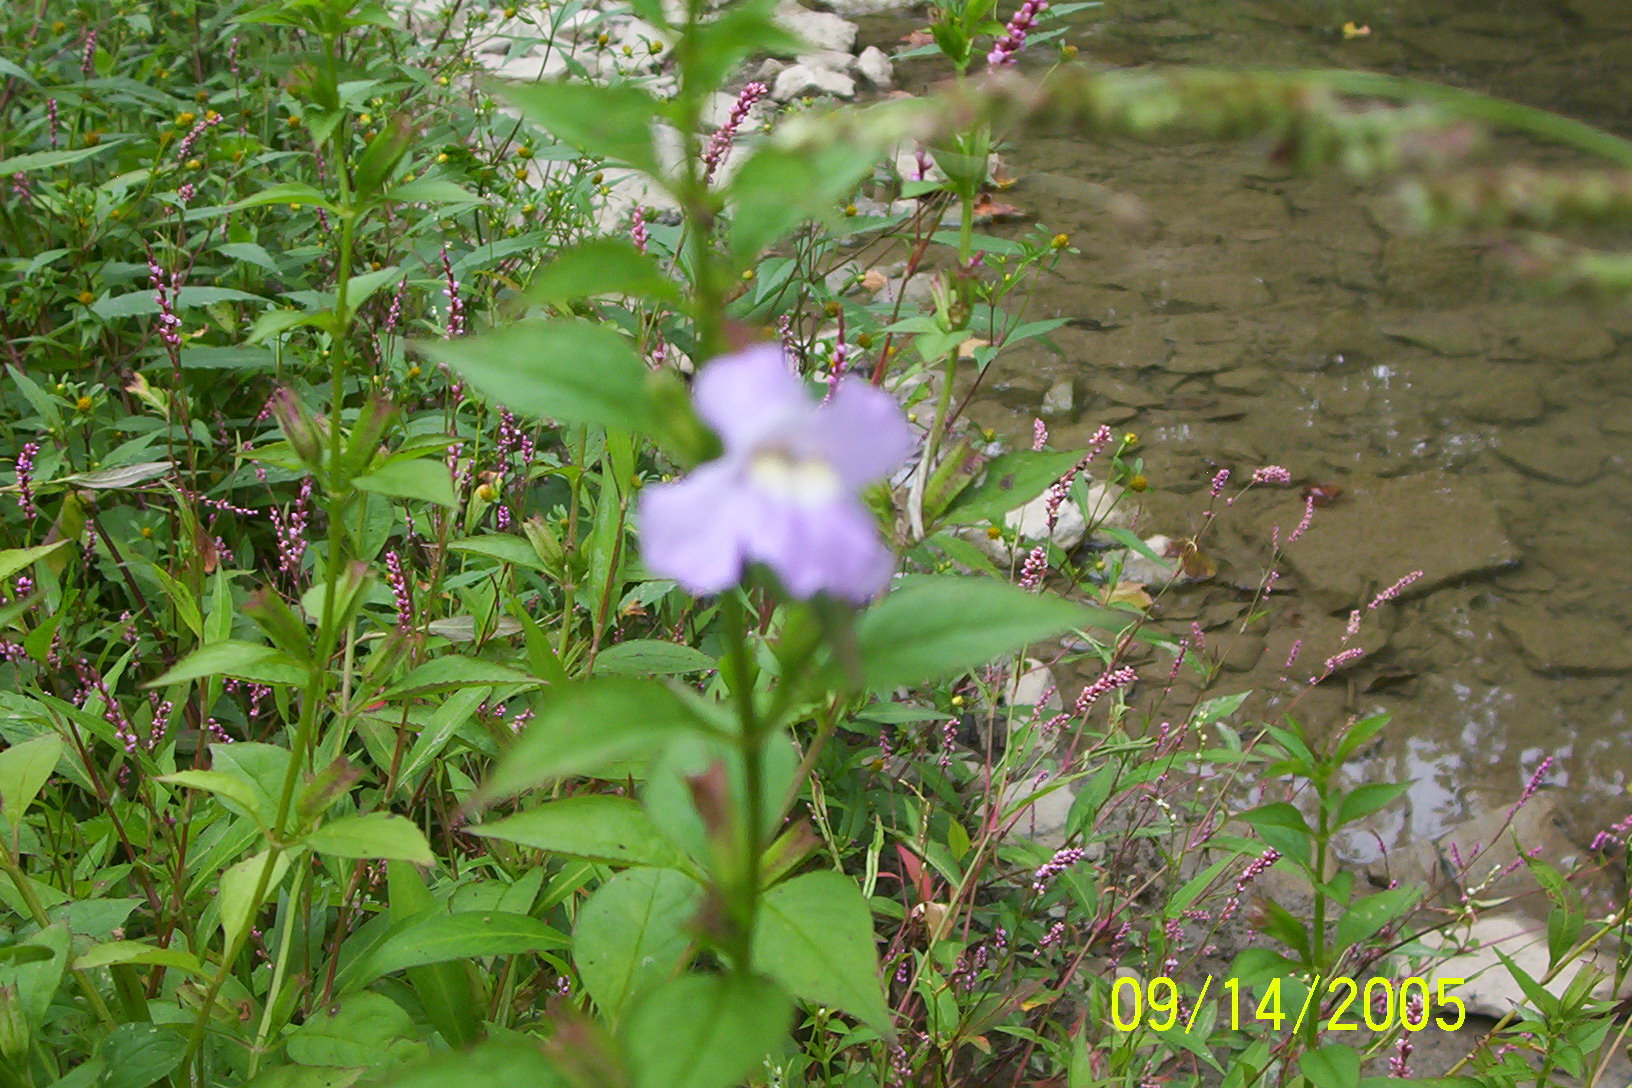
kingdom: Plantae
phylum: Tracheophyta
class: Magnoliopsida
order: Lamiales
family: Phrymaceae
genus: Mimulus
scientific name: Mimulus alatus
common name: Sharp-wing monkey-flower
